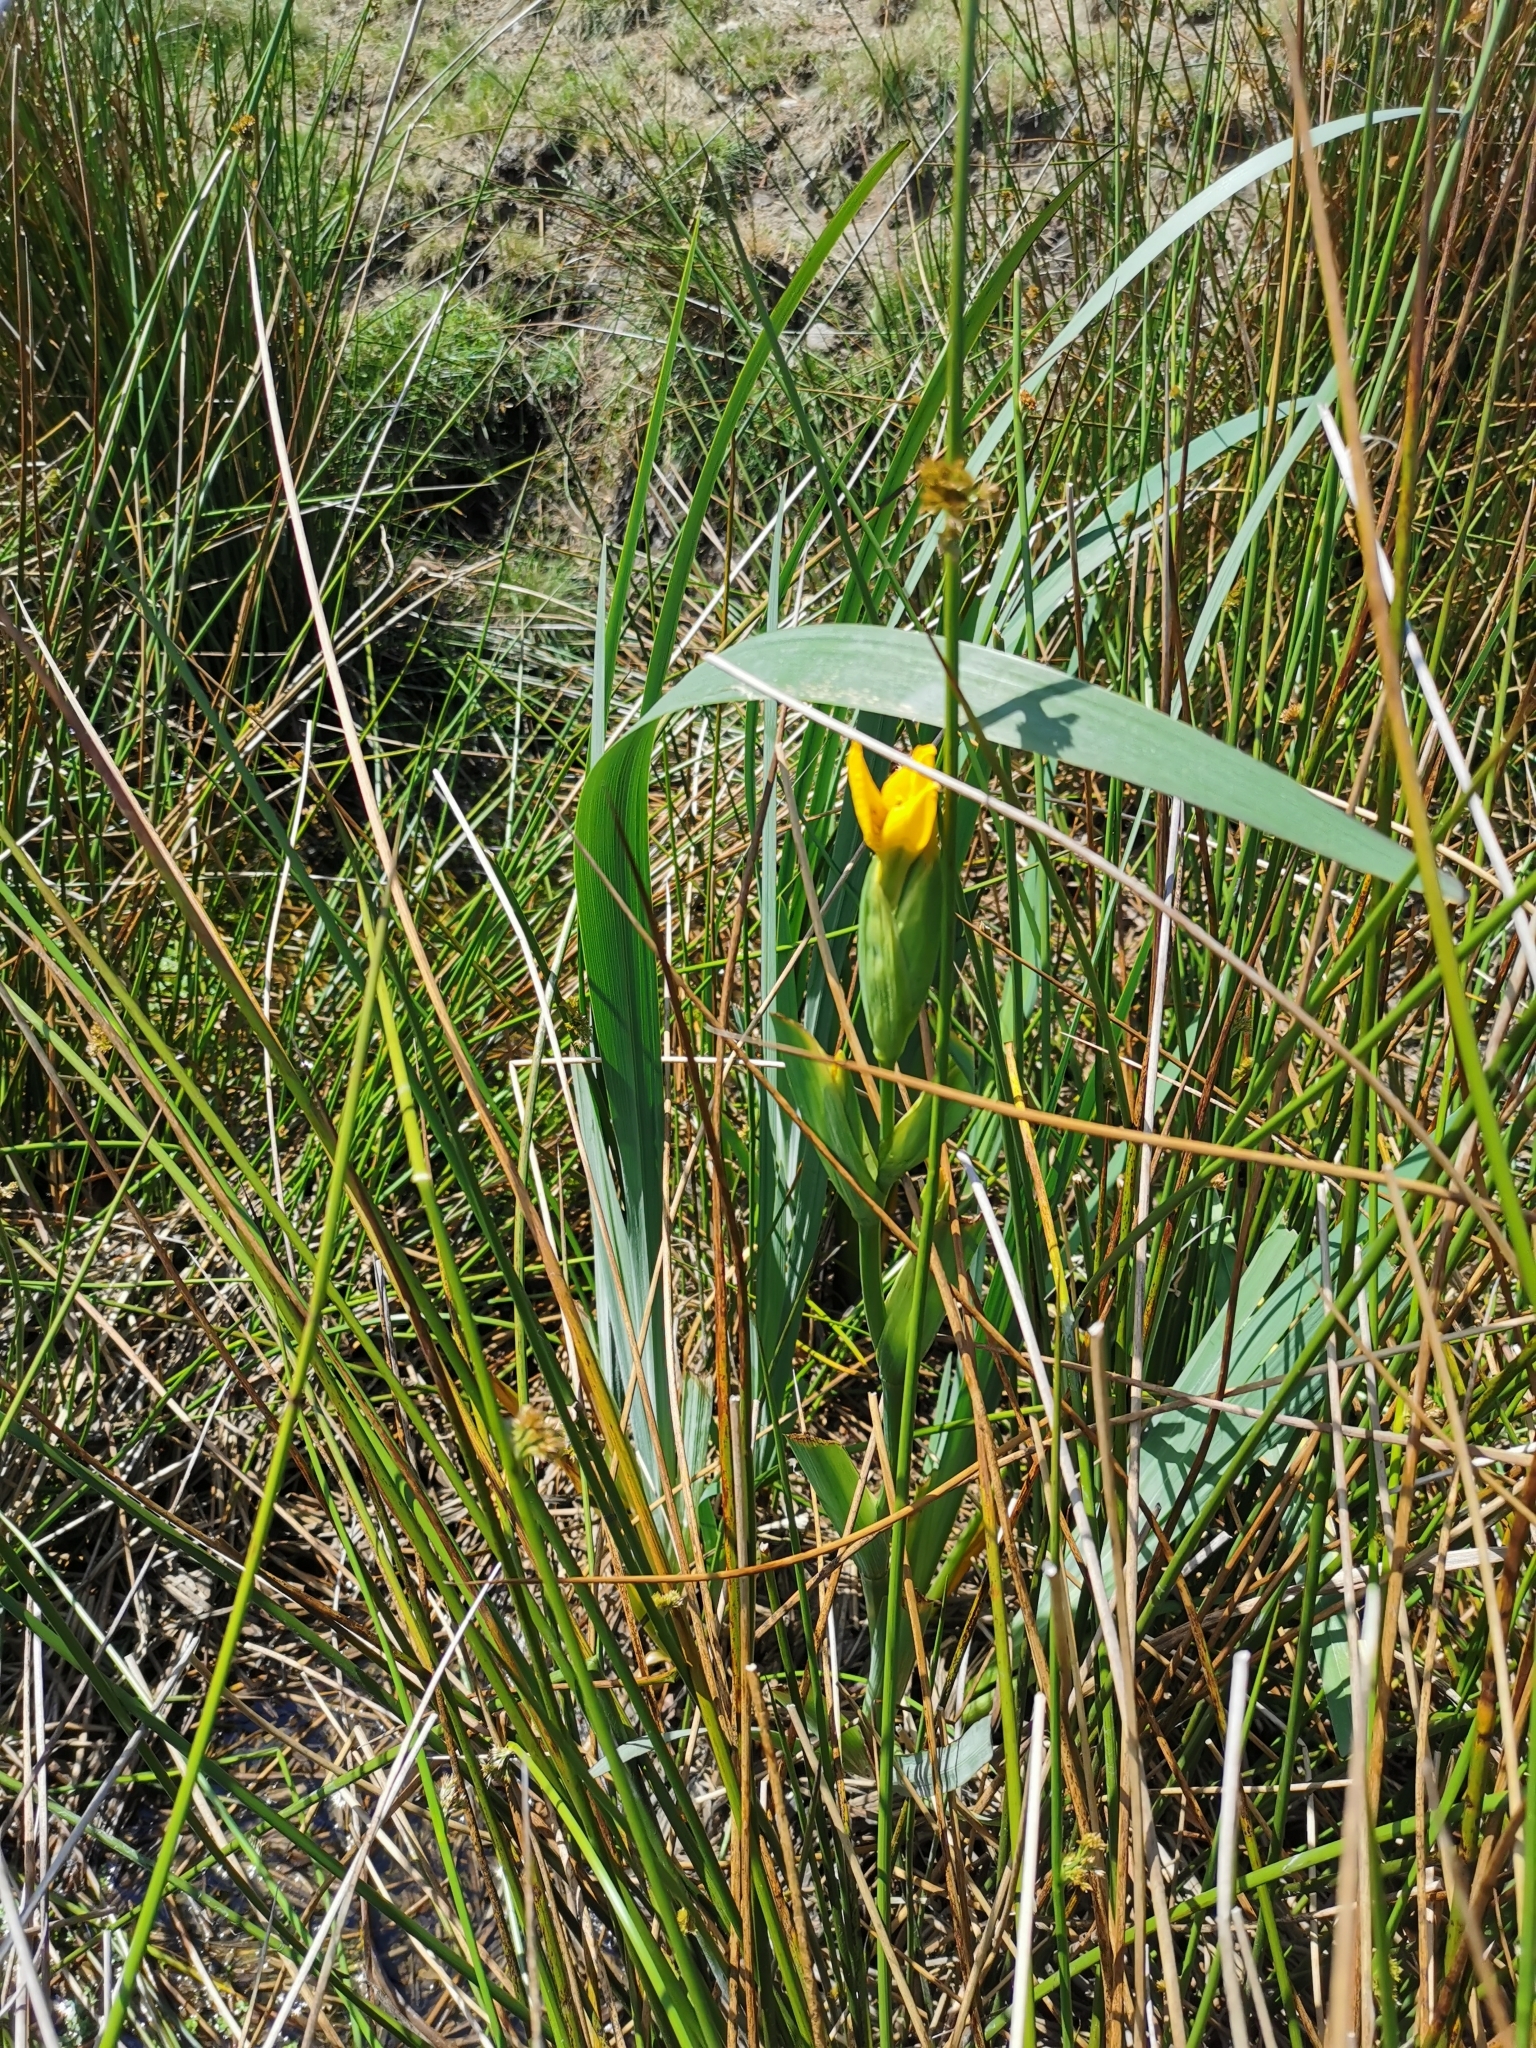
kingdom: Plantae
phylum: Tracheophyta
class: Liliopsida
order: Asparagales
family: Iridaceae
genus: Iris
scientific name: Iris pseudacorus
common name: Yellow flag
